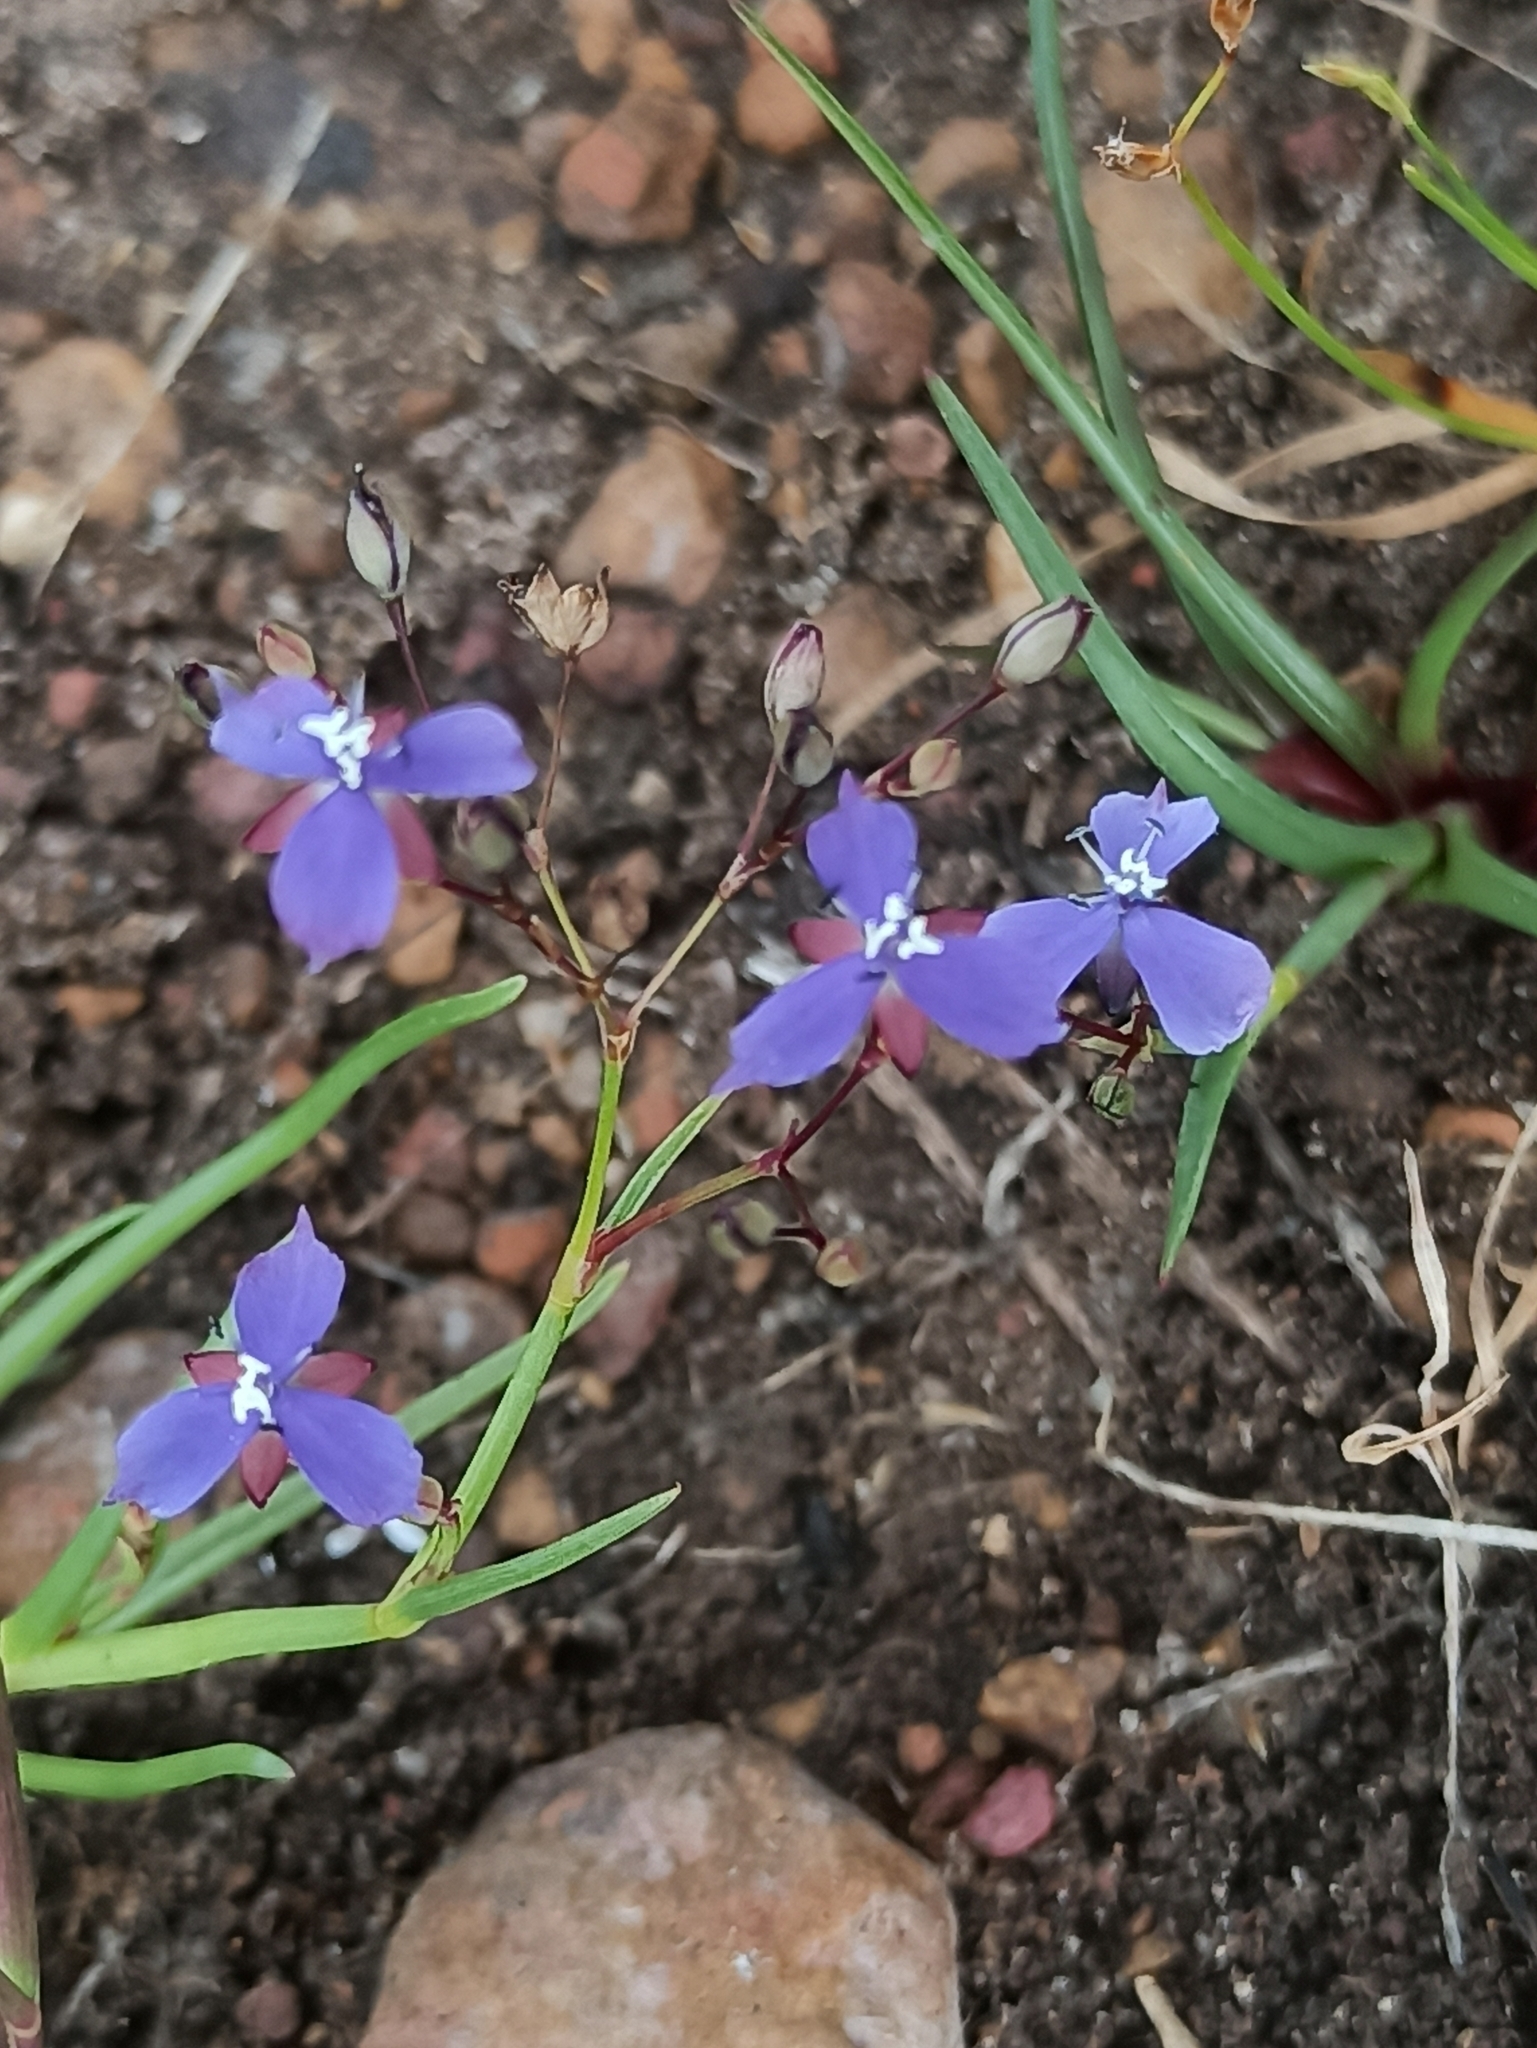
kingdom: Plantae
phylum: Tracheophyta
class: Liliopsida
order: Commelinales
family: Commelinaceae
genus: Murdannia
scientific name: Murdannia semiteres
